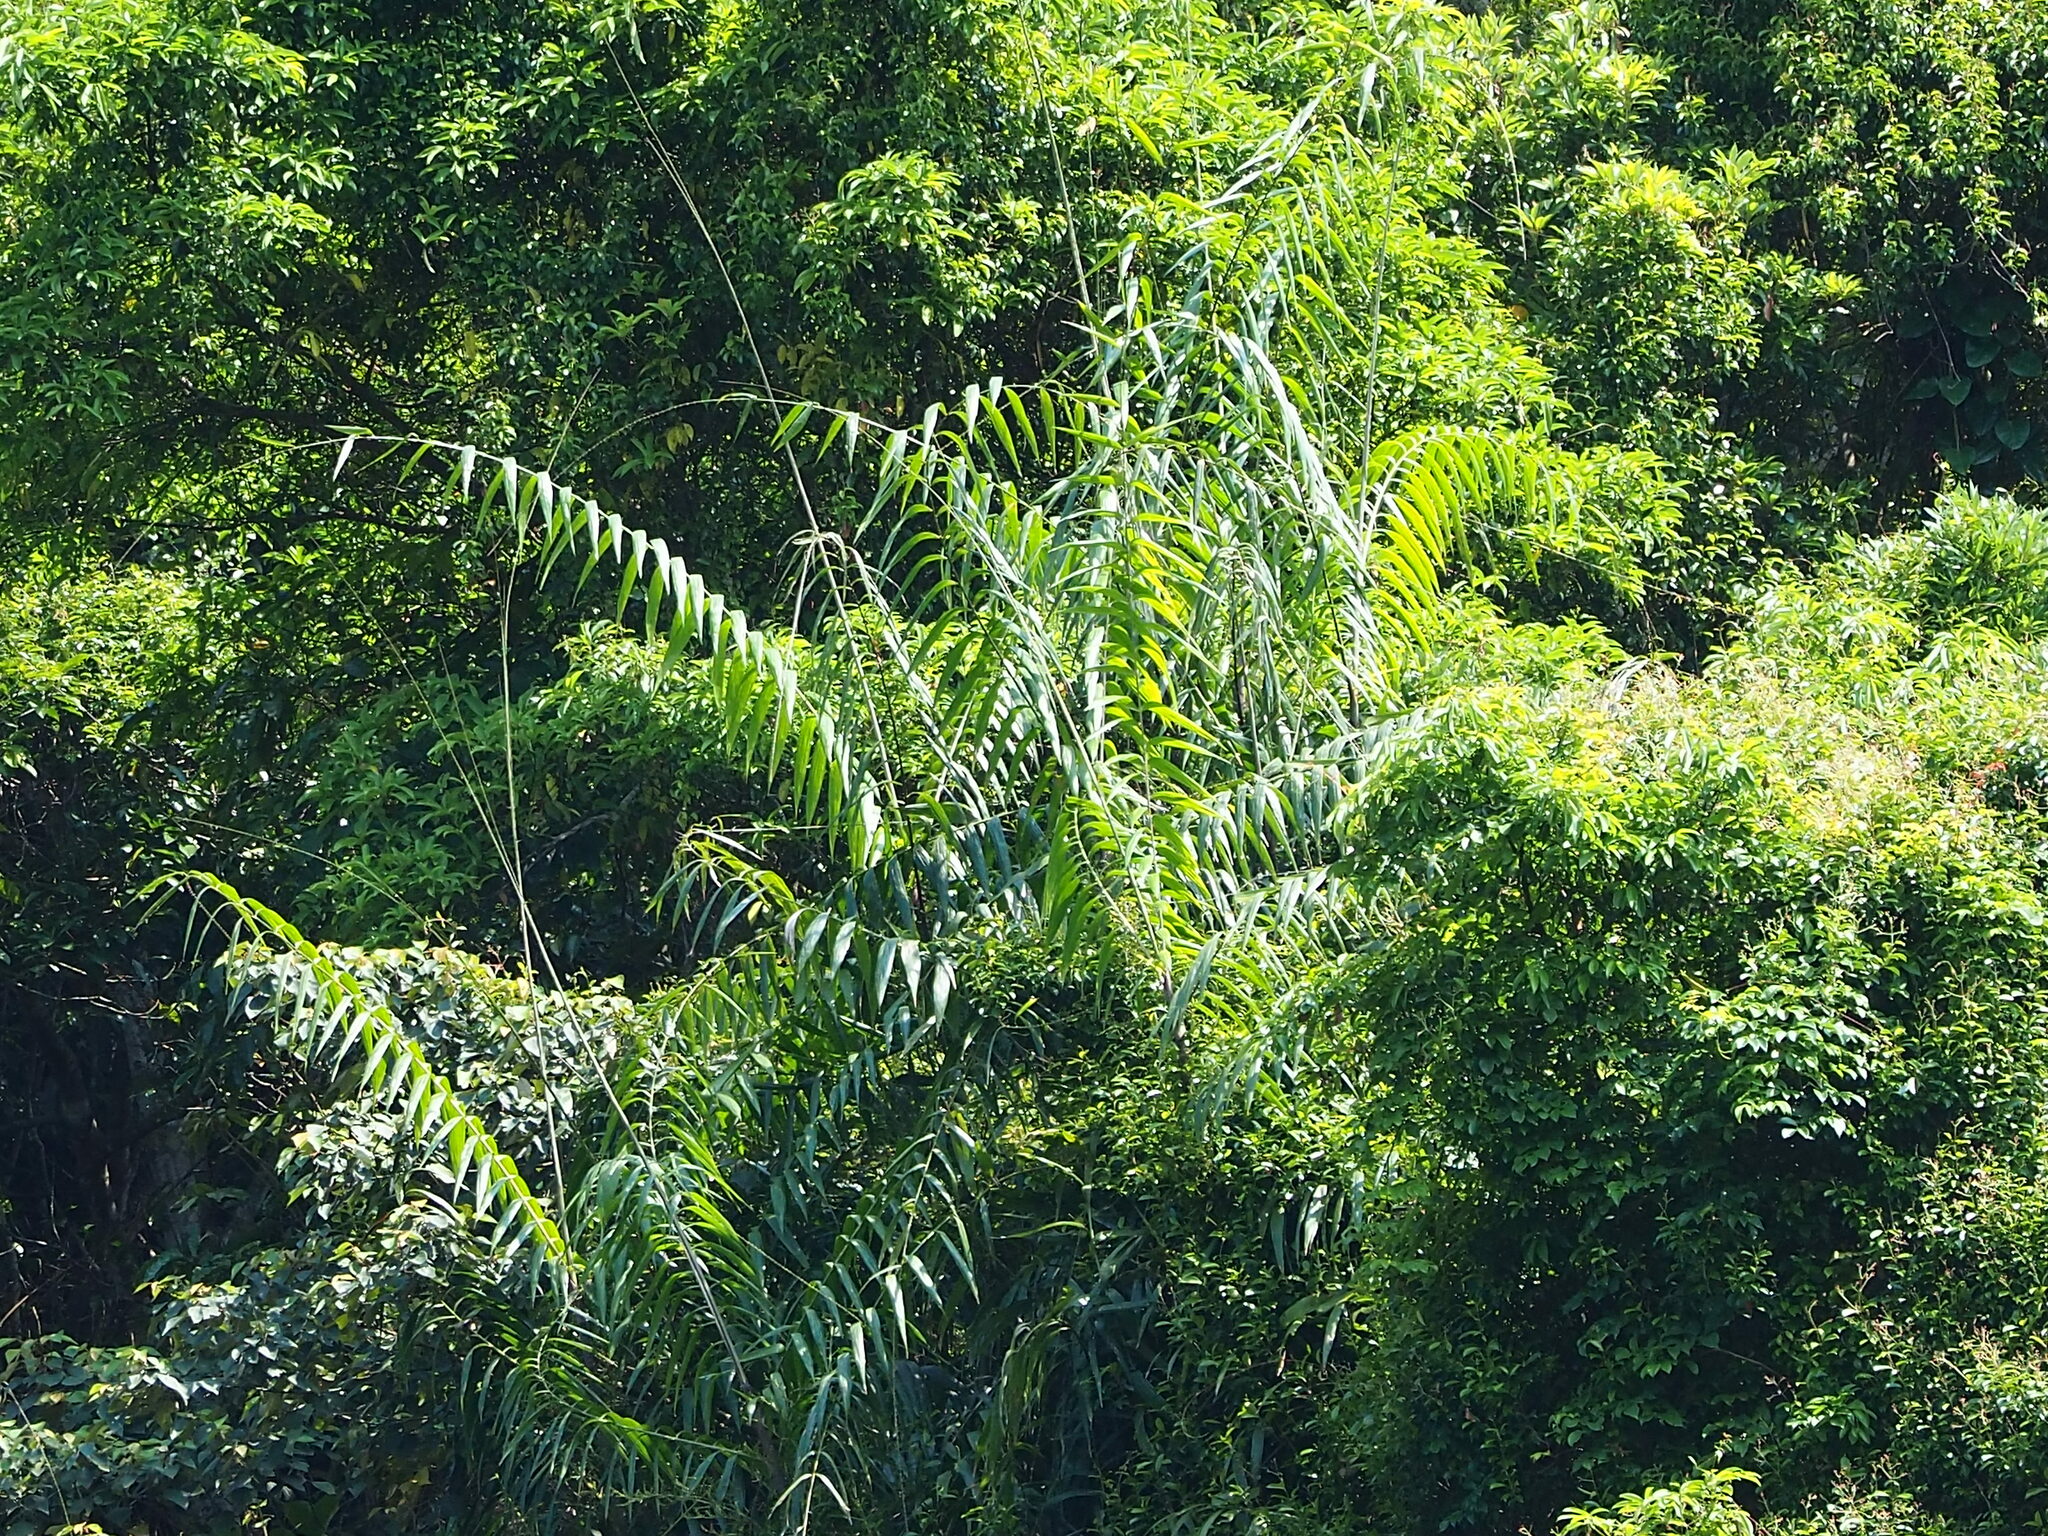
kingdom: Plantae
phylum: Tracheophyta
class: Liliopsida
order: Arecales
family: Arecaceae
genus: Calamus
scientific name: Calamus formosanus
